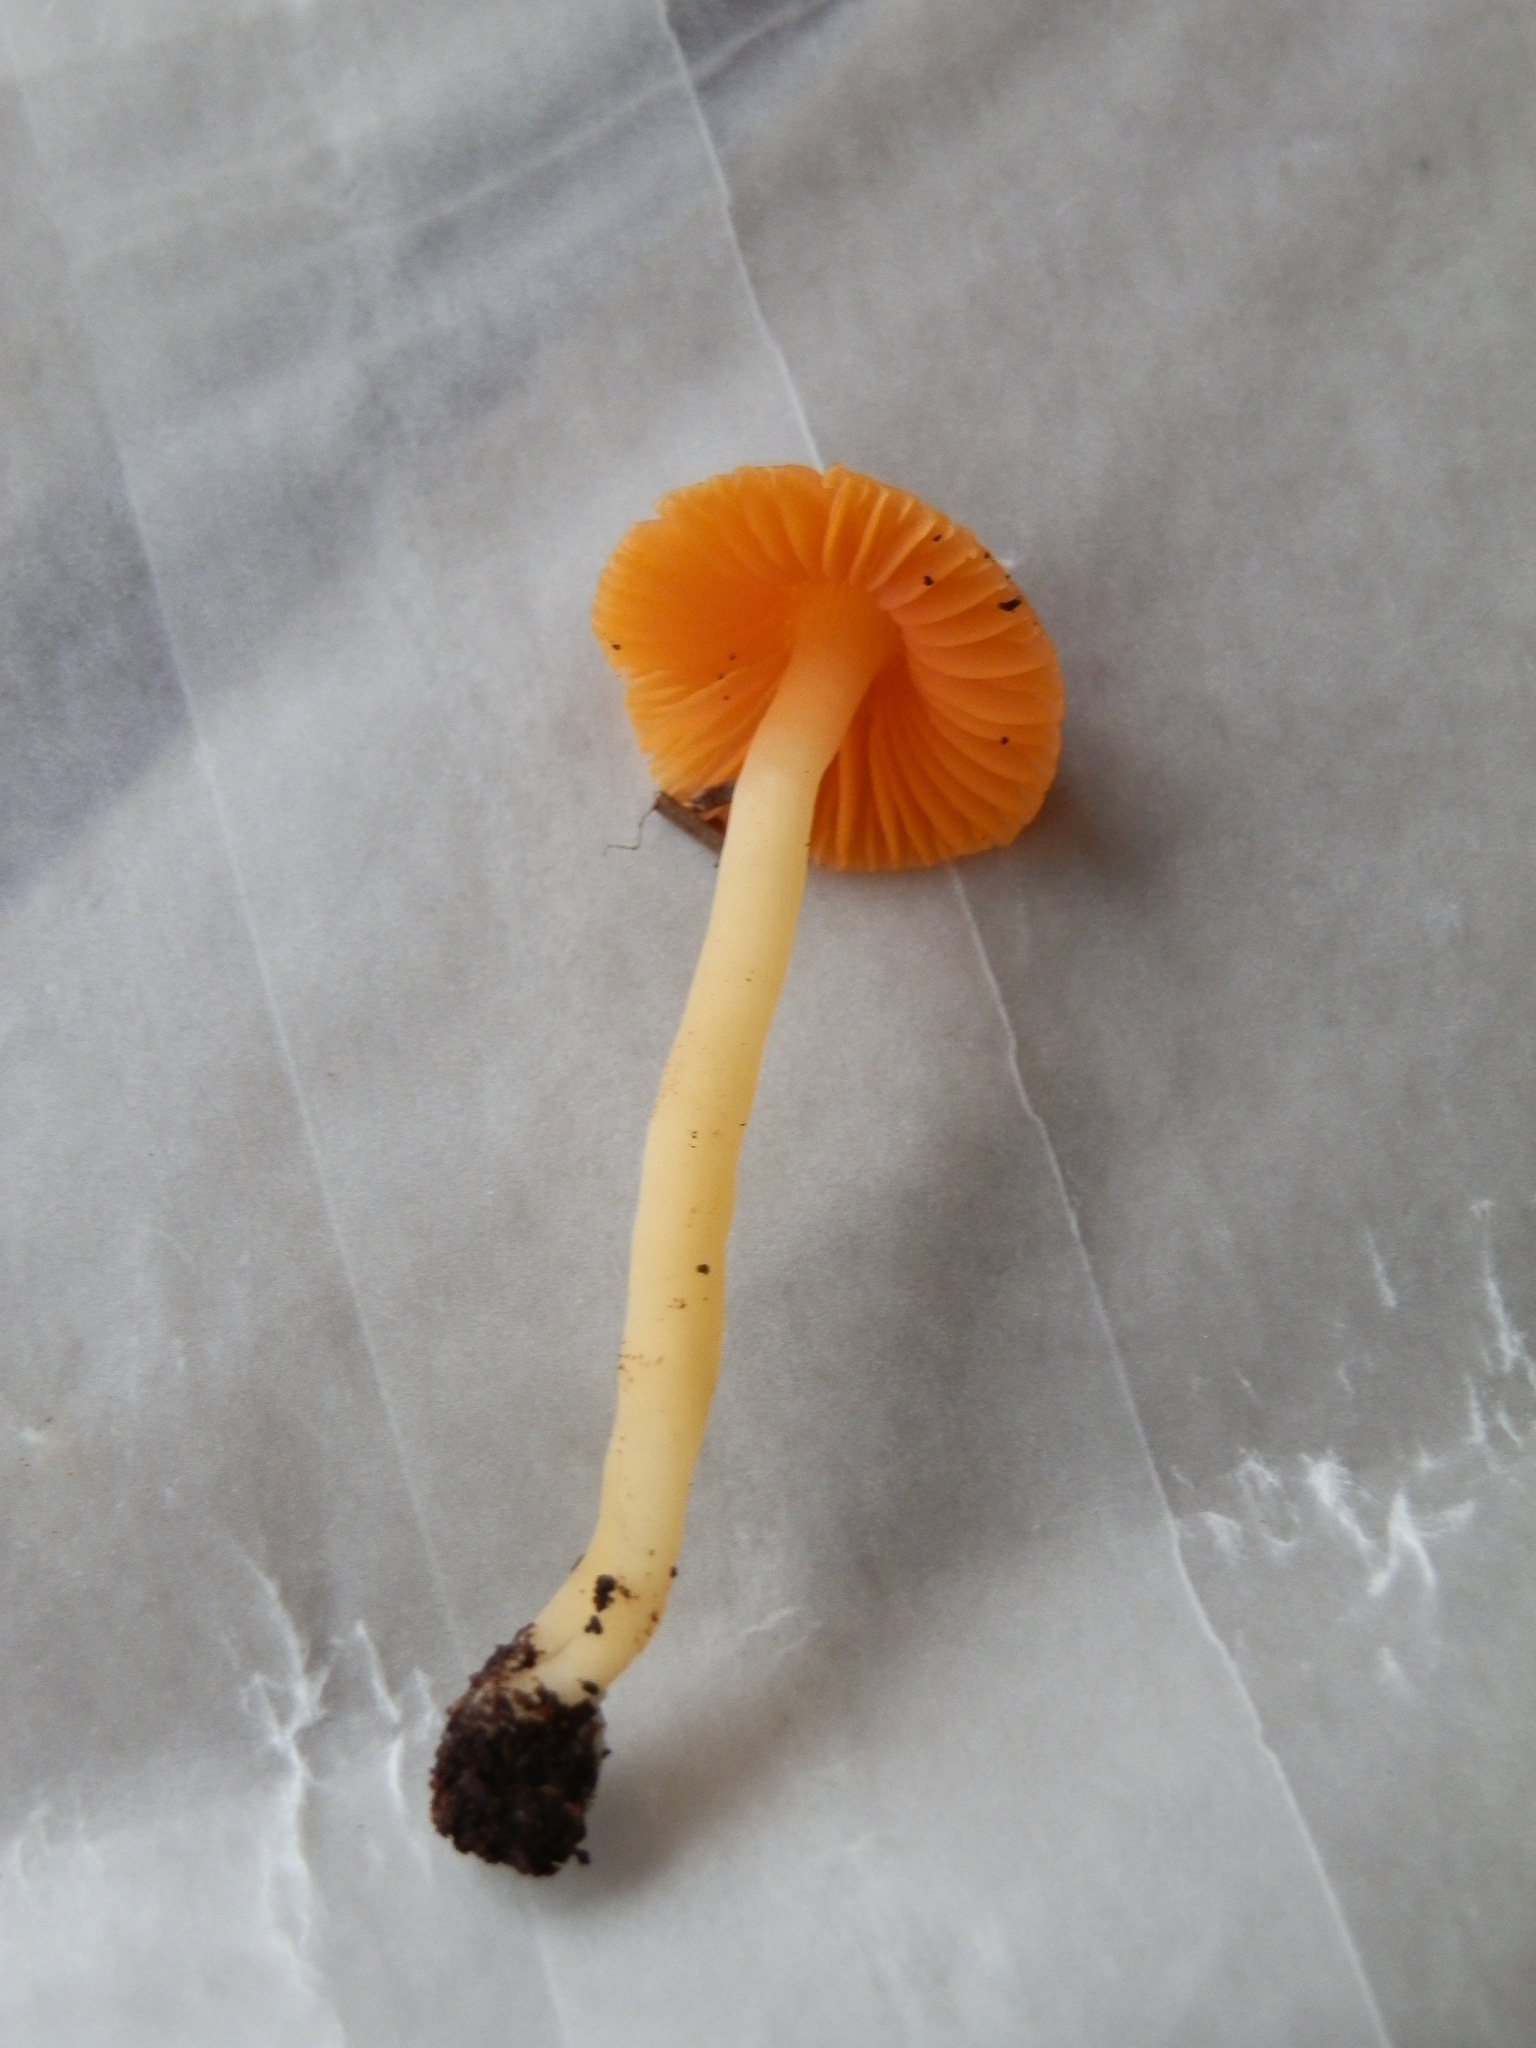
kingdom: Fungi
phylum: Basidiomycota
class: Agaricomycetes
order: Agaricales
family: Hygrophoraceae
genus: Humidicutis
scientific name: Humidicutis marginata
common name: Orange gilled waxcap
